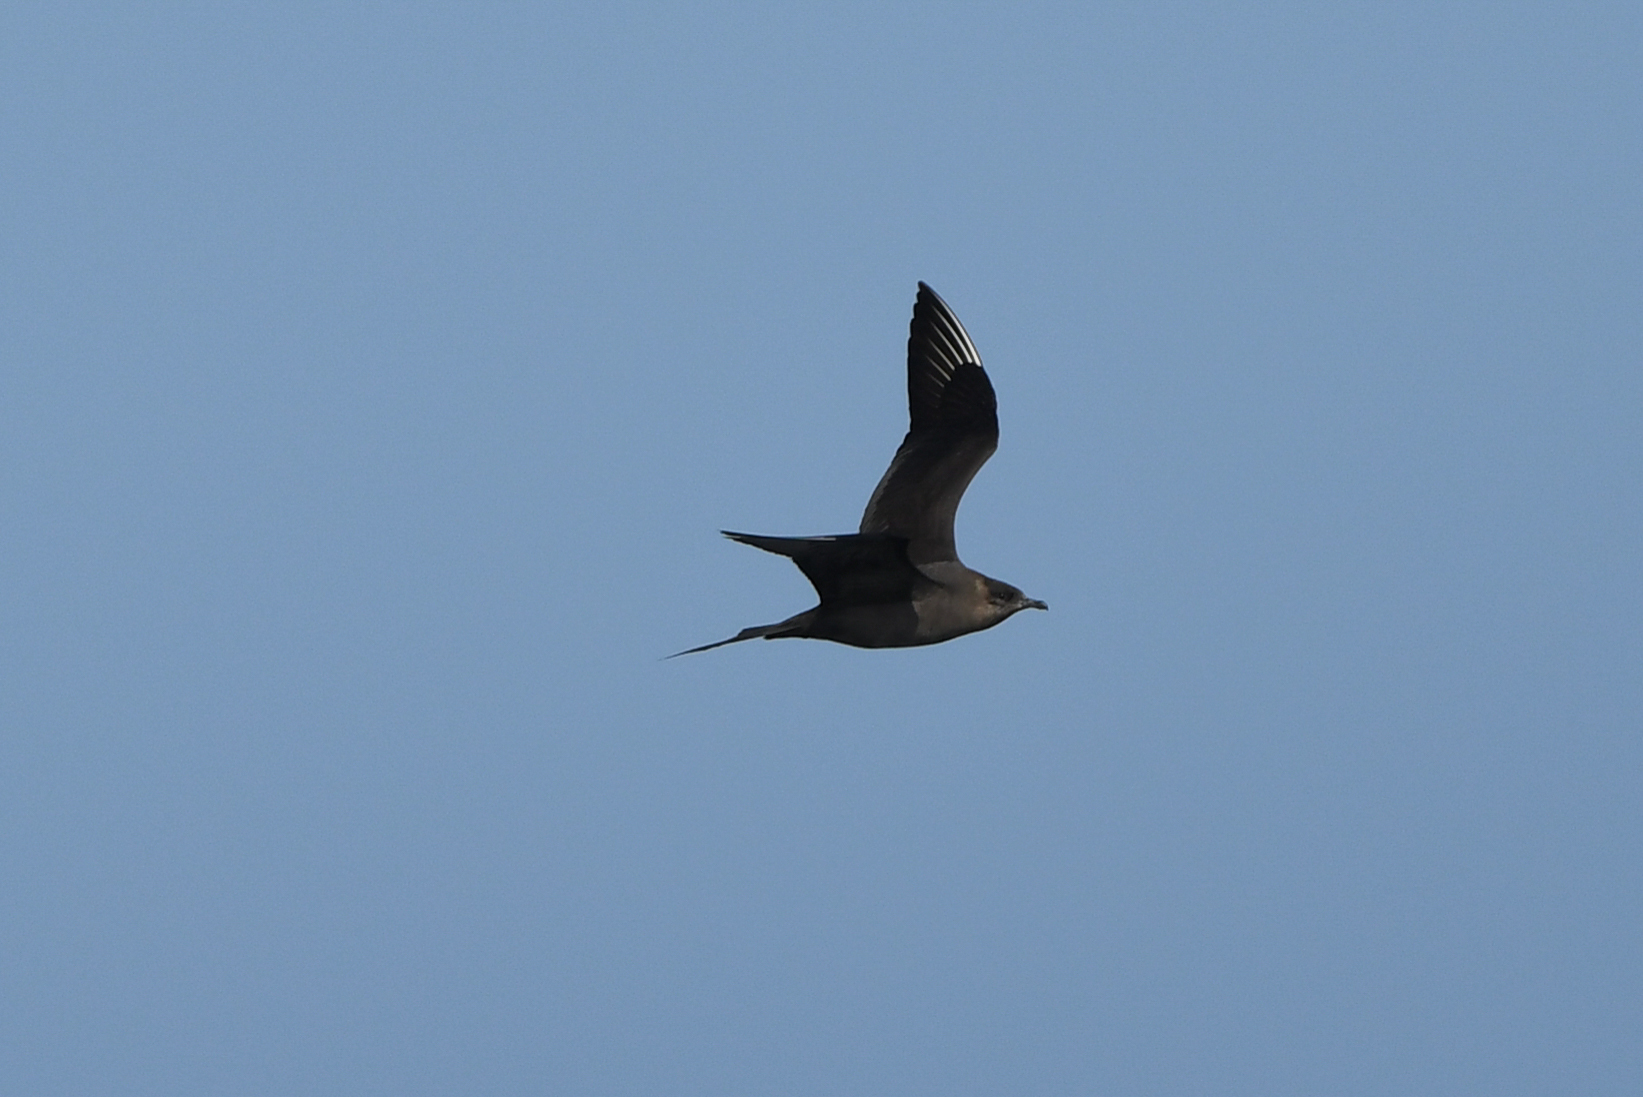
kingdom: Animalia
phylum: Chordata
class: Aves
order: Charadriiformes
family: Stercorariidae
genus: Stercorarius
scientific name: Stercorarius parasiticus
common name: Parasitic jaeger
